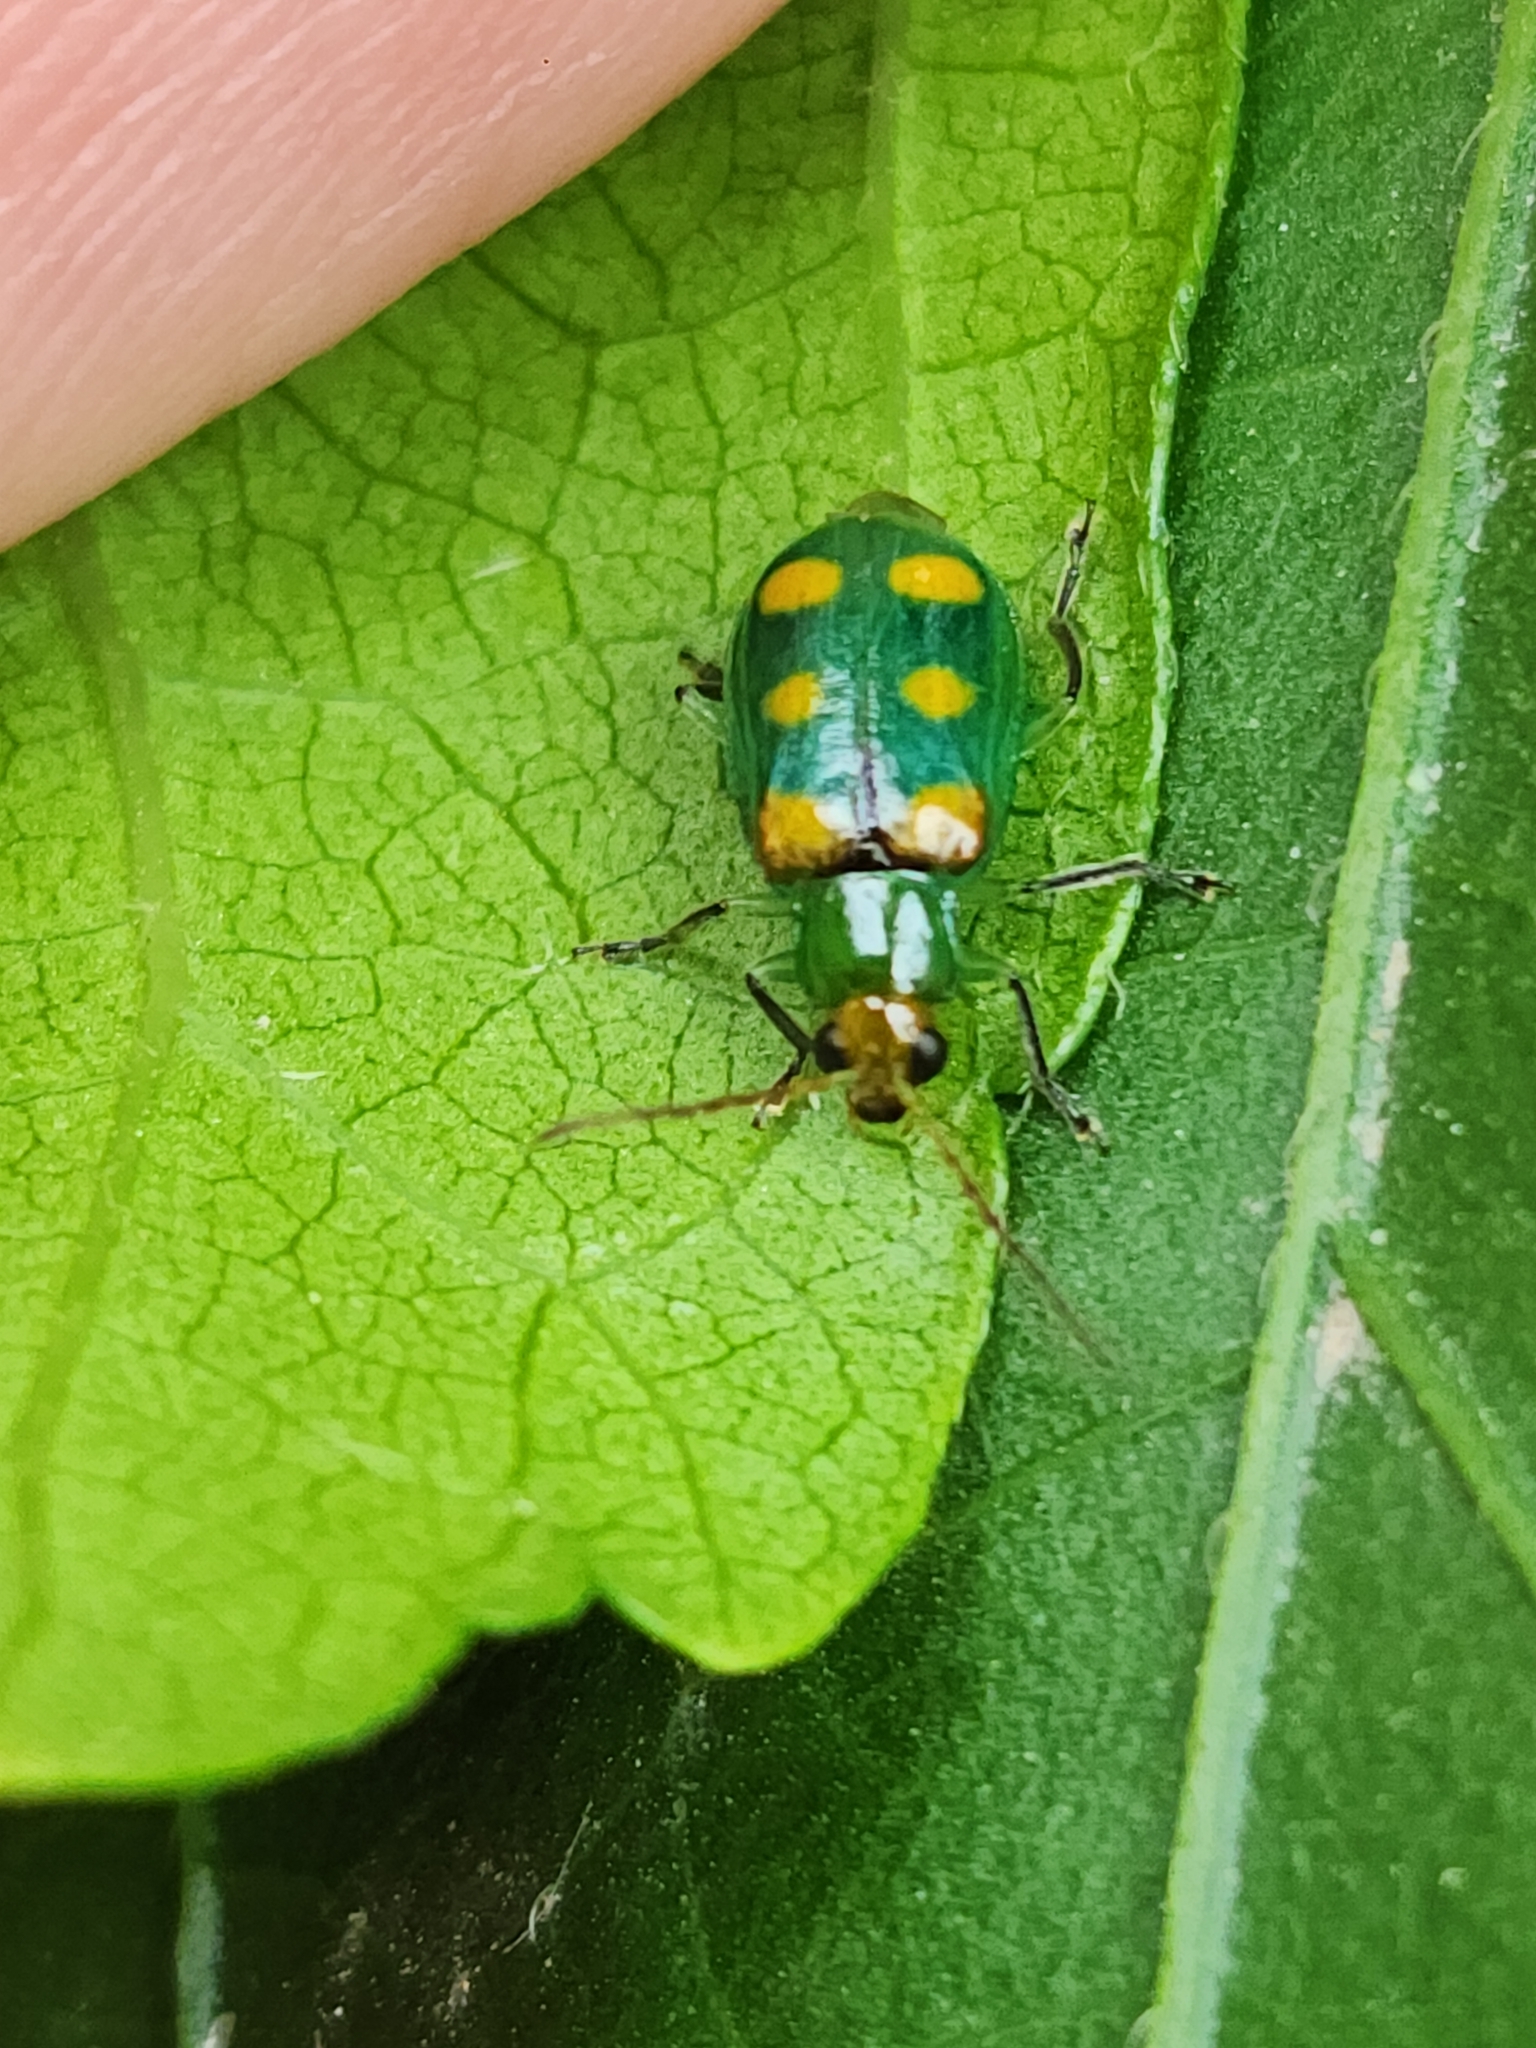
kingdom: Animalia
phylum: Arthropoda
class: Insecta
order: Coleoptera
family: Chrysomelidae
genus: Diabrotica
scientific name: Diabrotica speciosa
